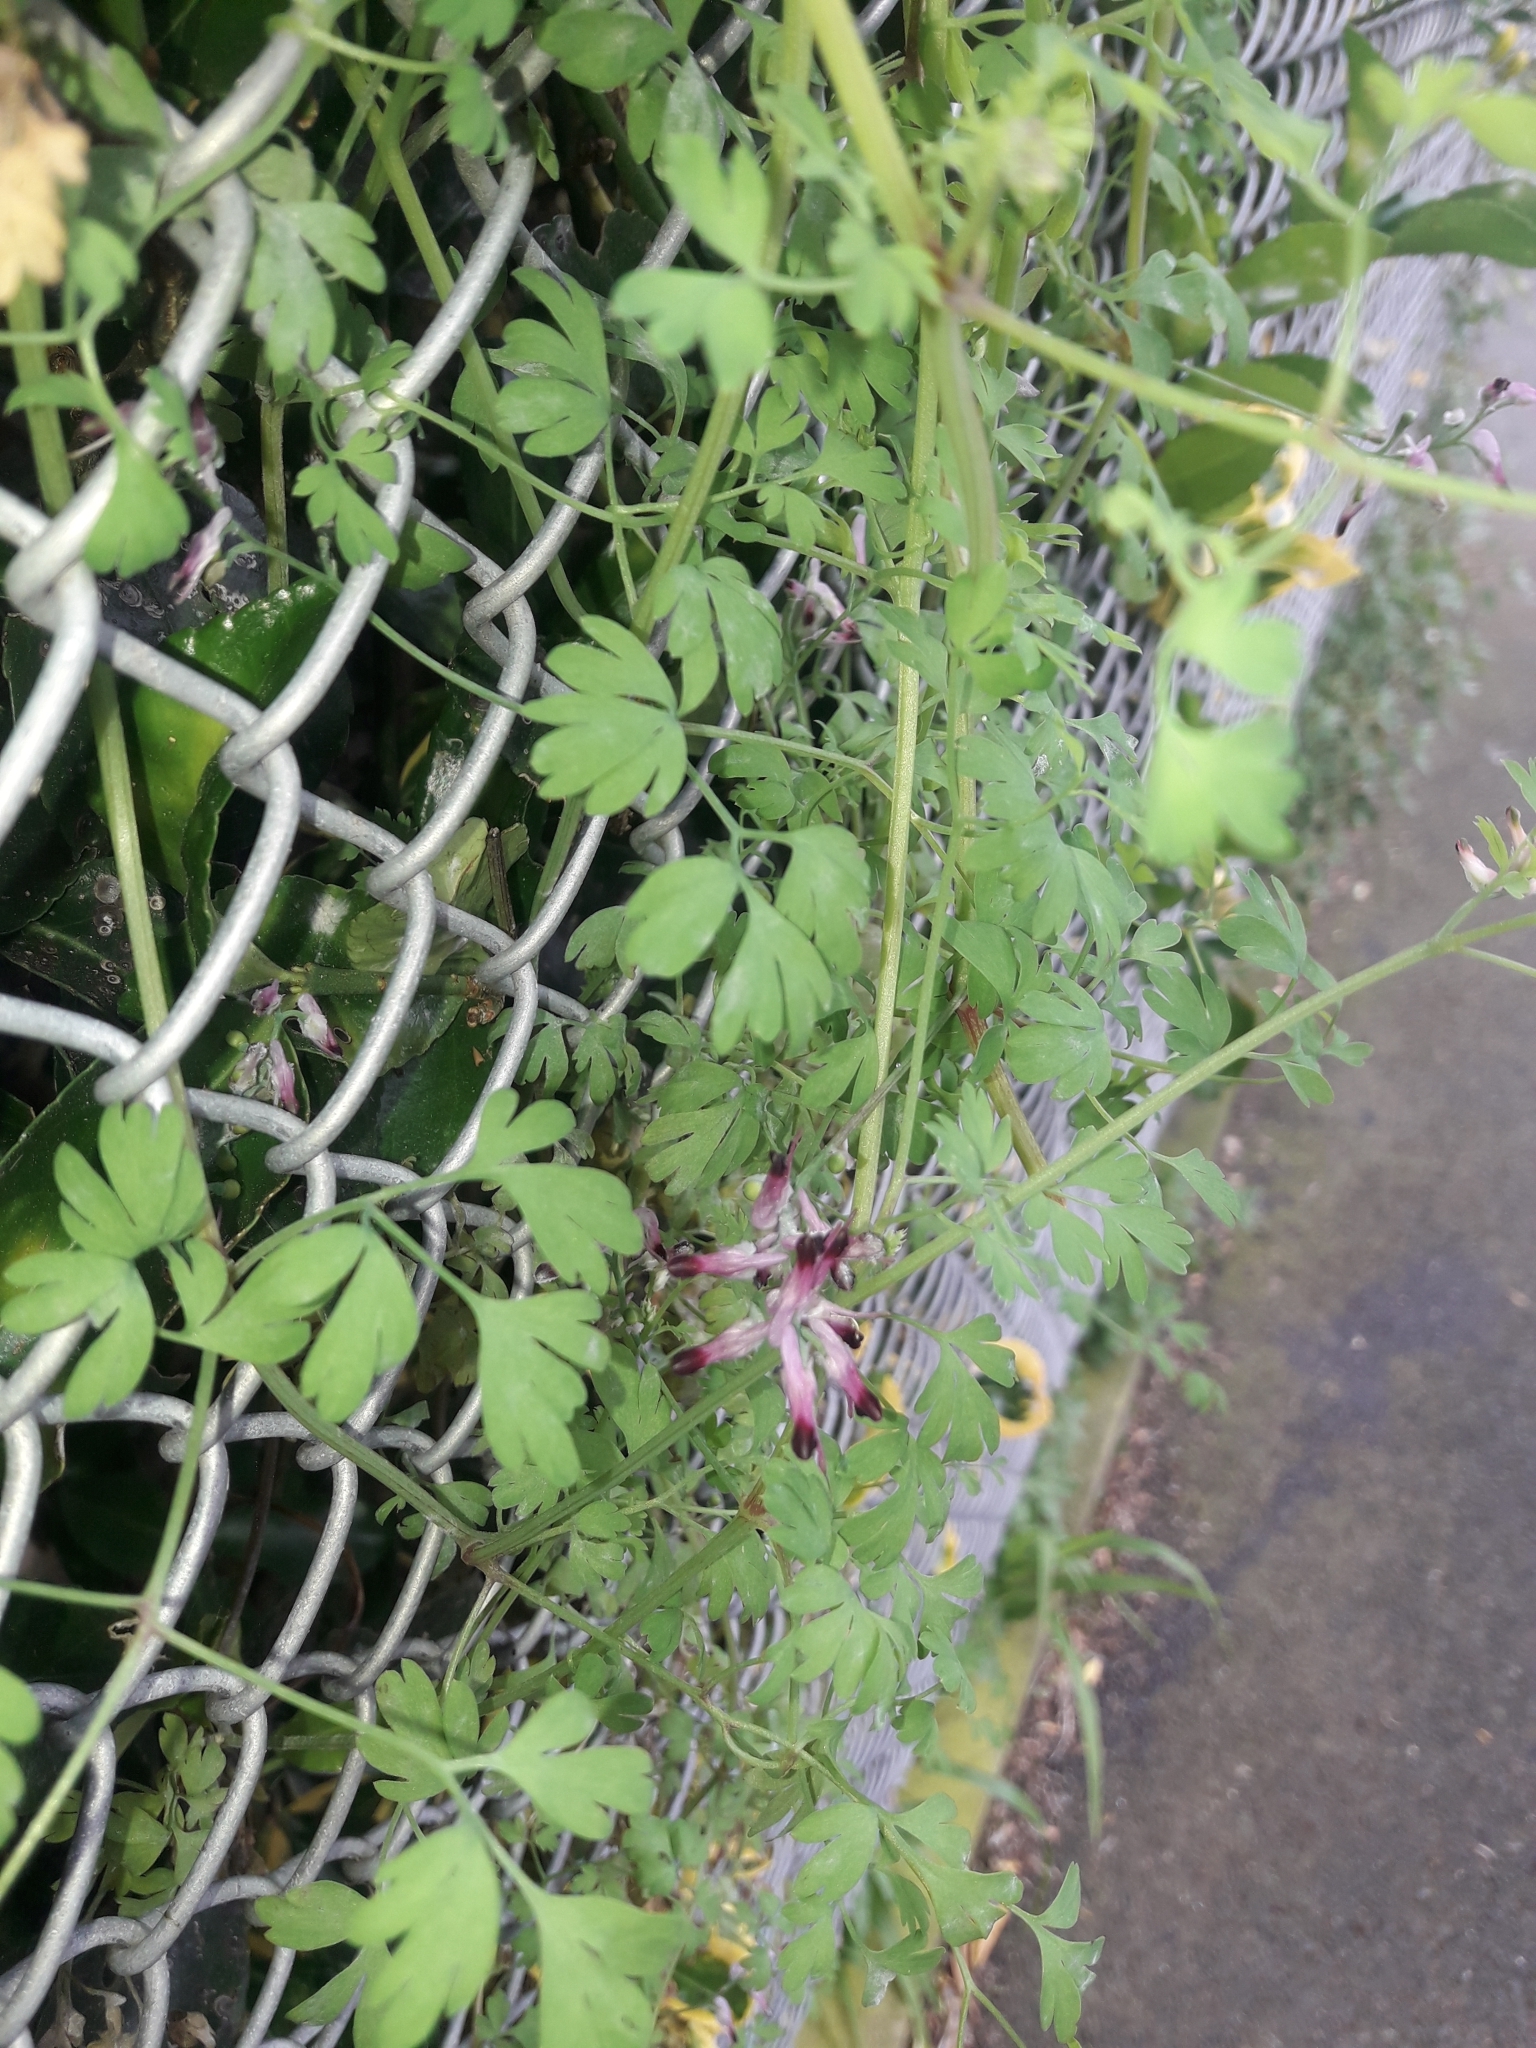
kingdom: Plantae
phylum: Tracheophyta
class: Magnoliopsida
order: Ranunculales
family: Papaveraceae
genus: Fumaria
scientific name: Fumaria muralis
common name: Common ramping-fumitory
